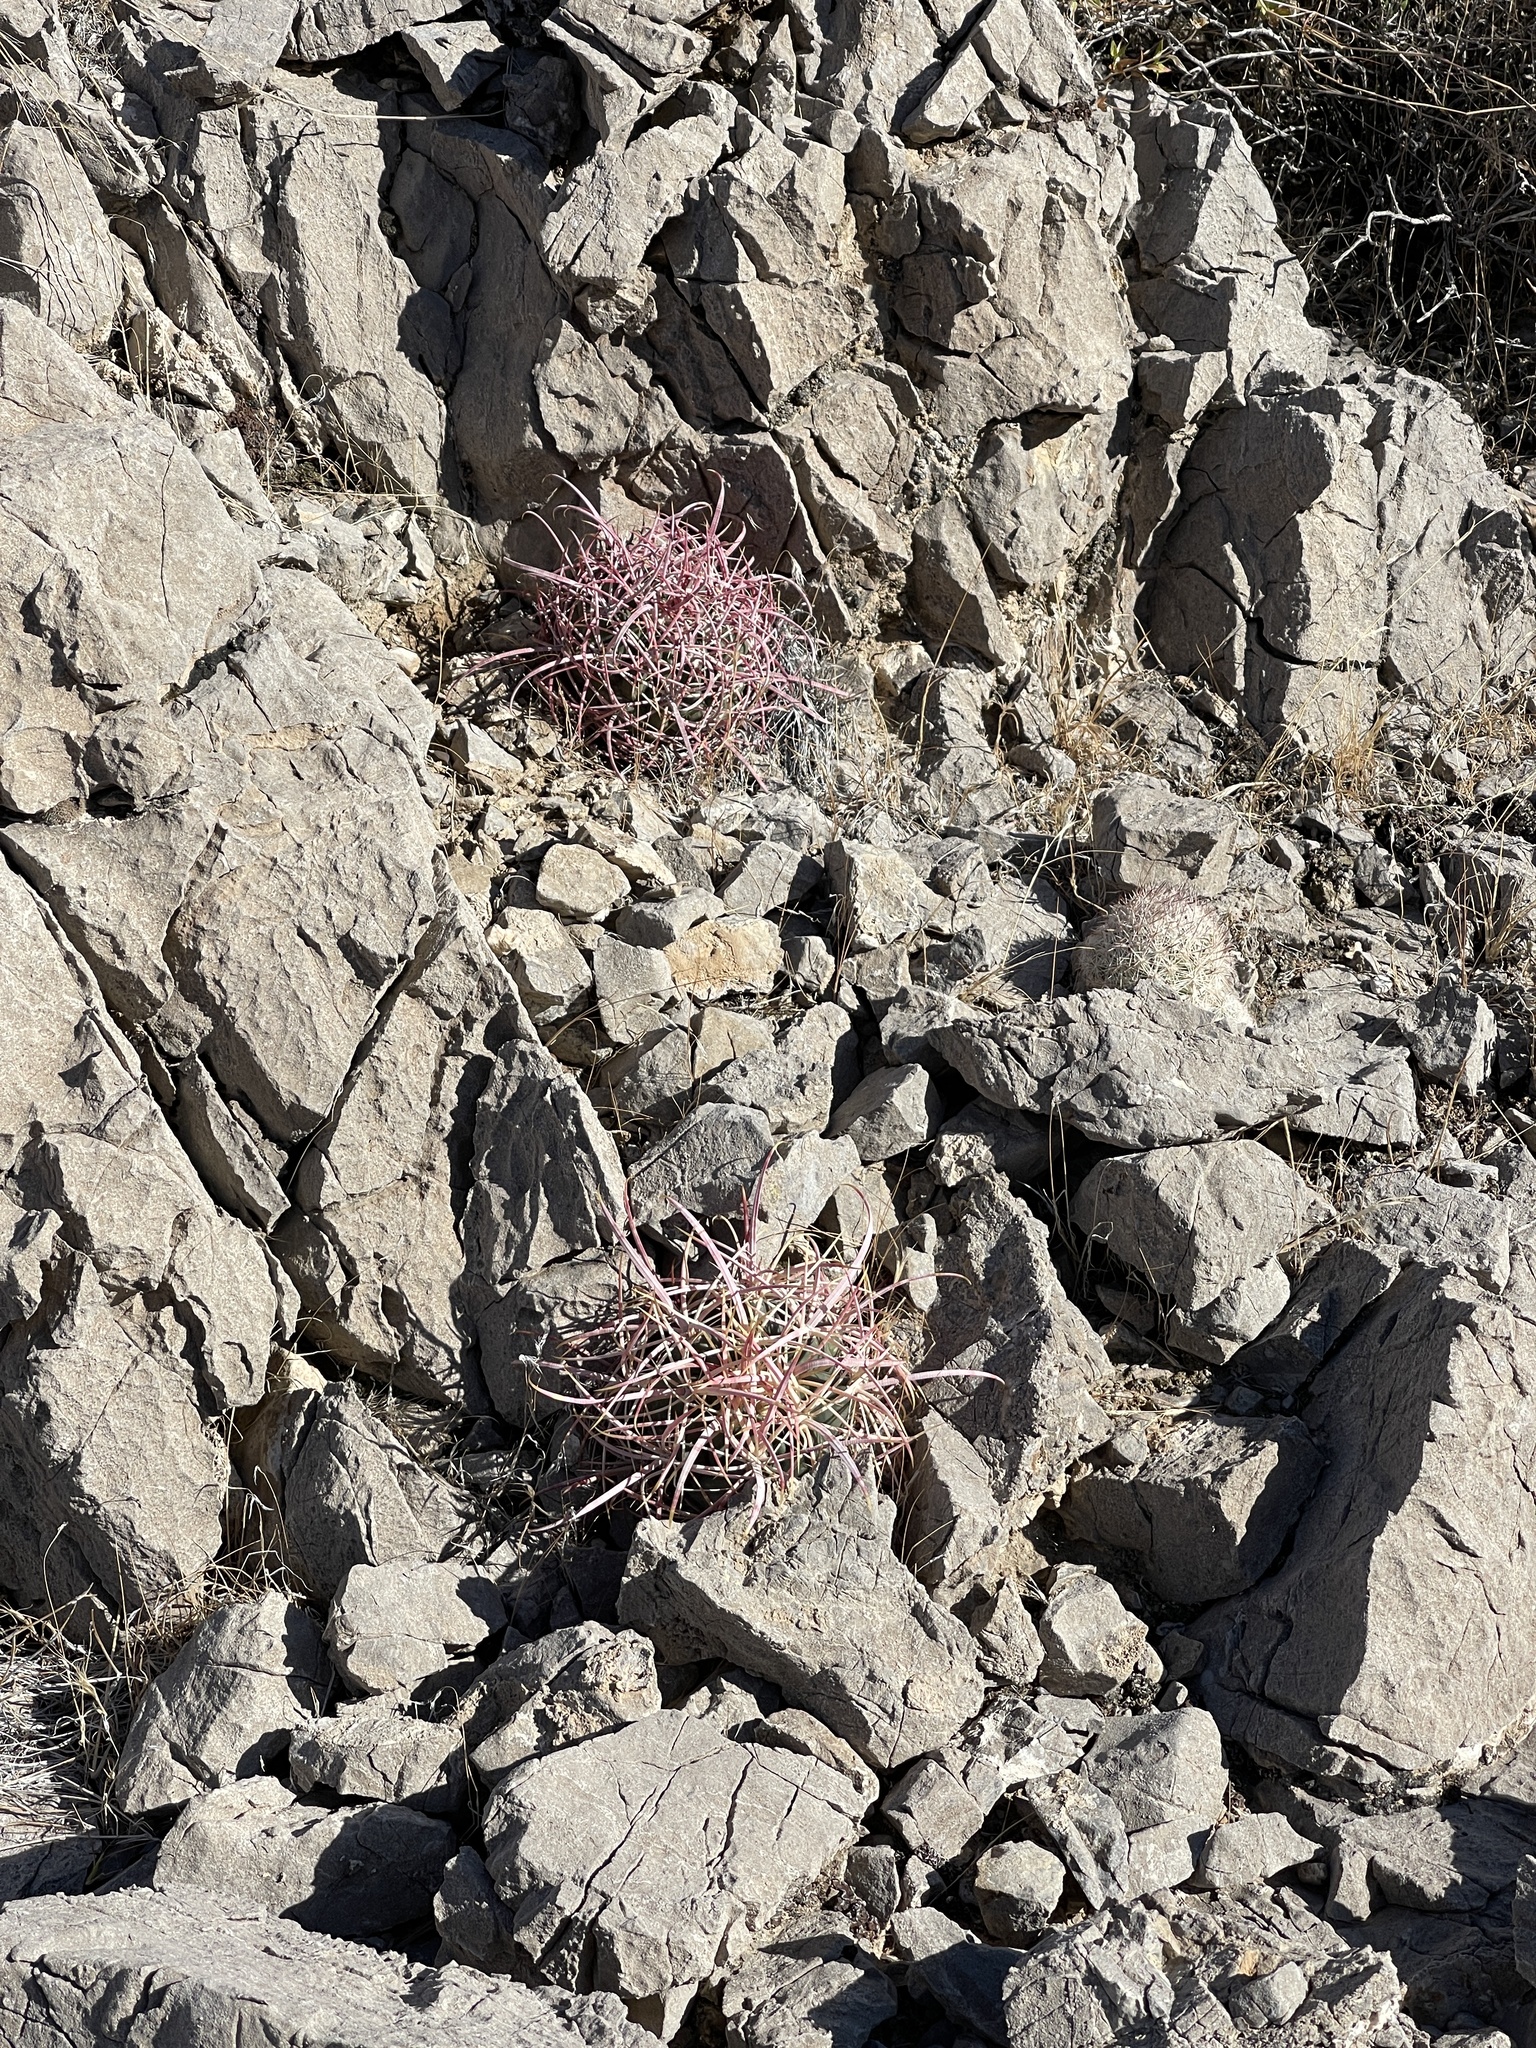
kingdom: Plantae
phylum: Tracheophyta
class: Magnoliopsida
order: Caryophyllales
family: Cactaceae
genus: Ferocactus
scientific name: Ferocactus cylindraceus
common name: California barrel cactus
